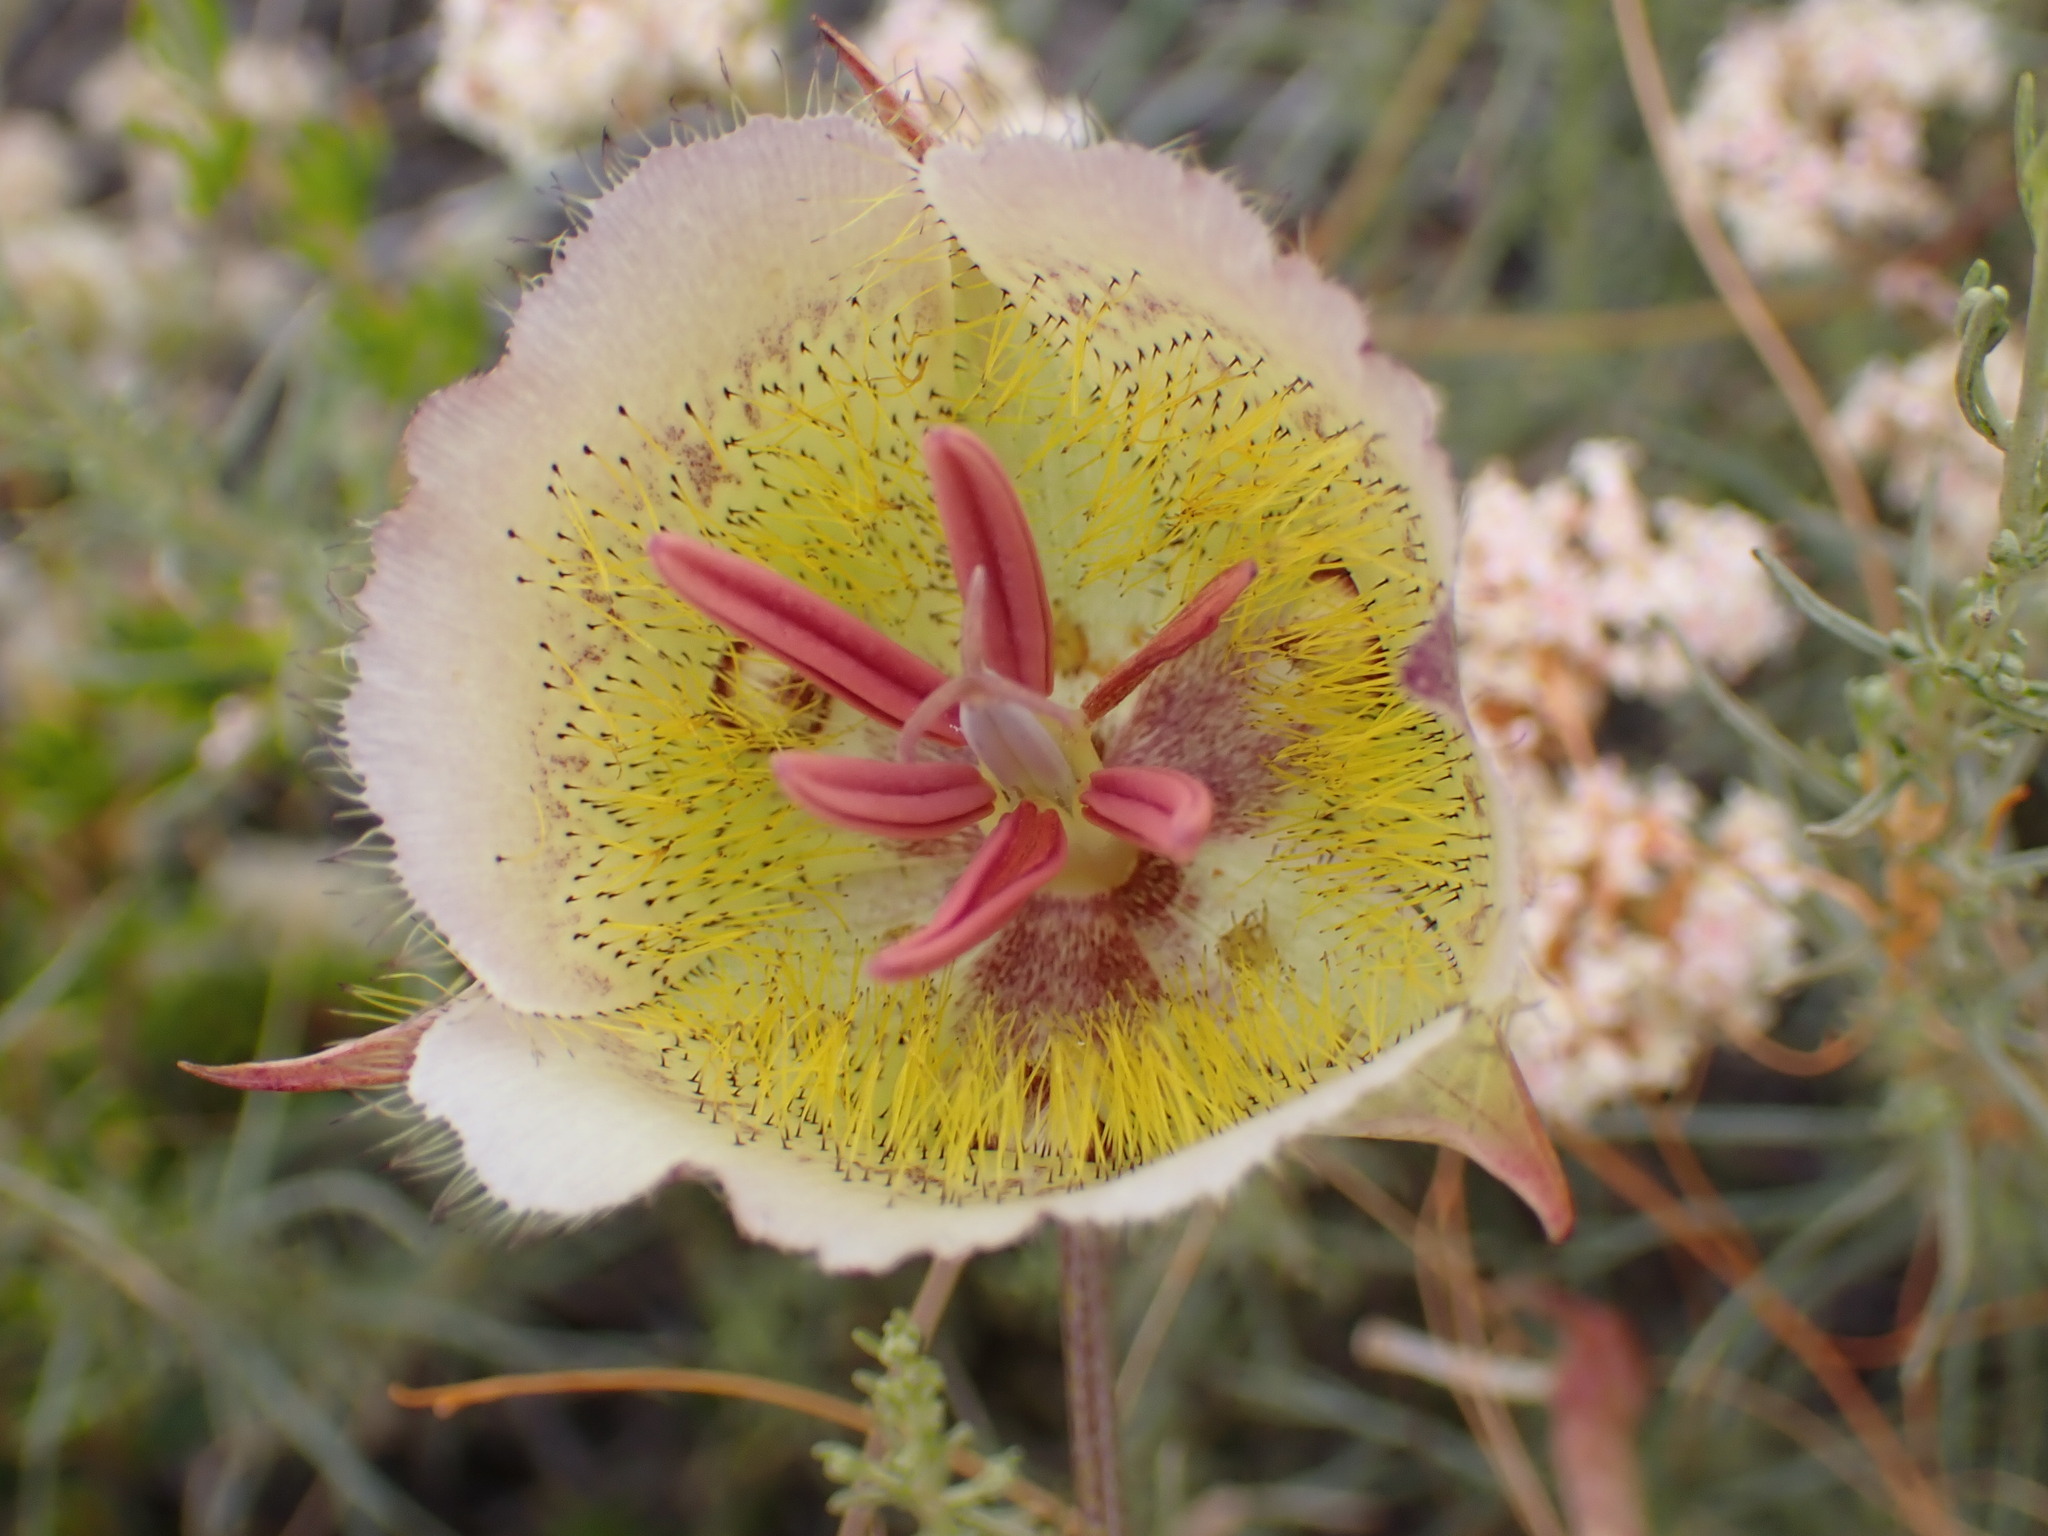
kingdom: Plantae
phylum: Tracheophyta
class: Liliopsida
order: Liliales
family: Liliaceae
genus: Calochortus
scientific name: Calochortus weedii
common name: Weed's mariposa-lily
